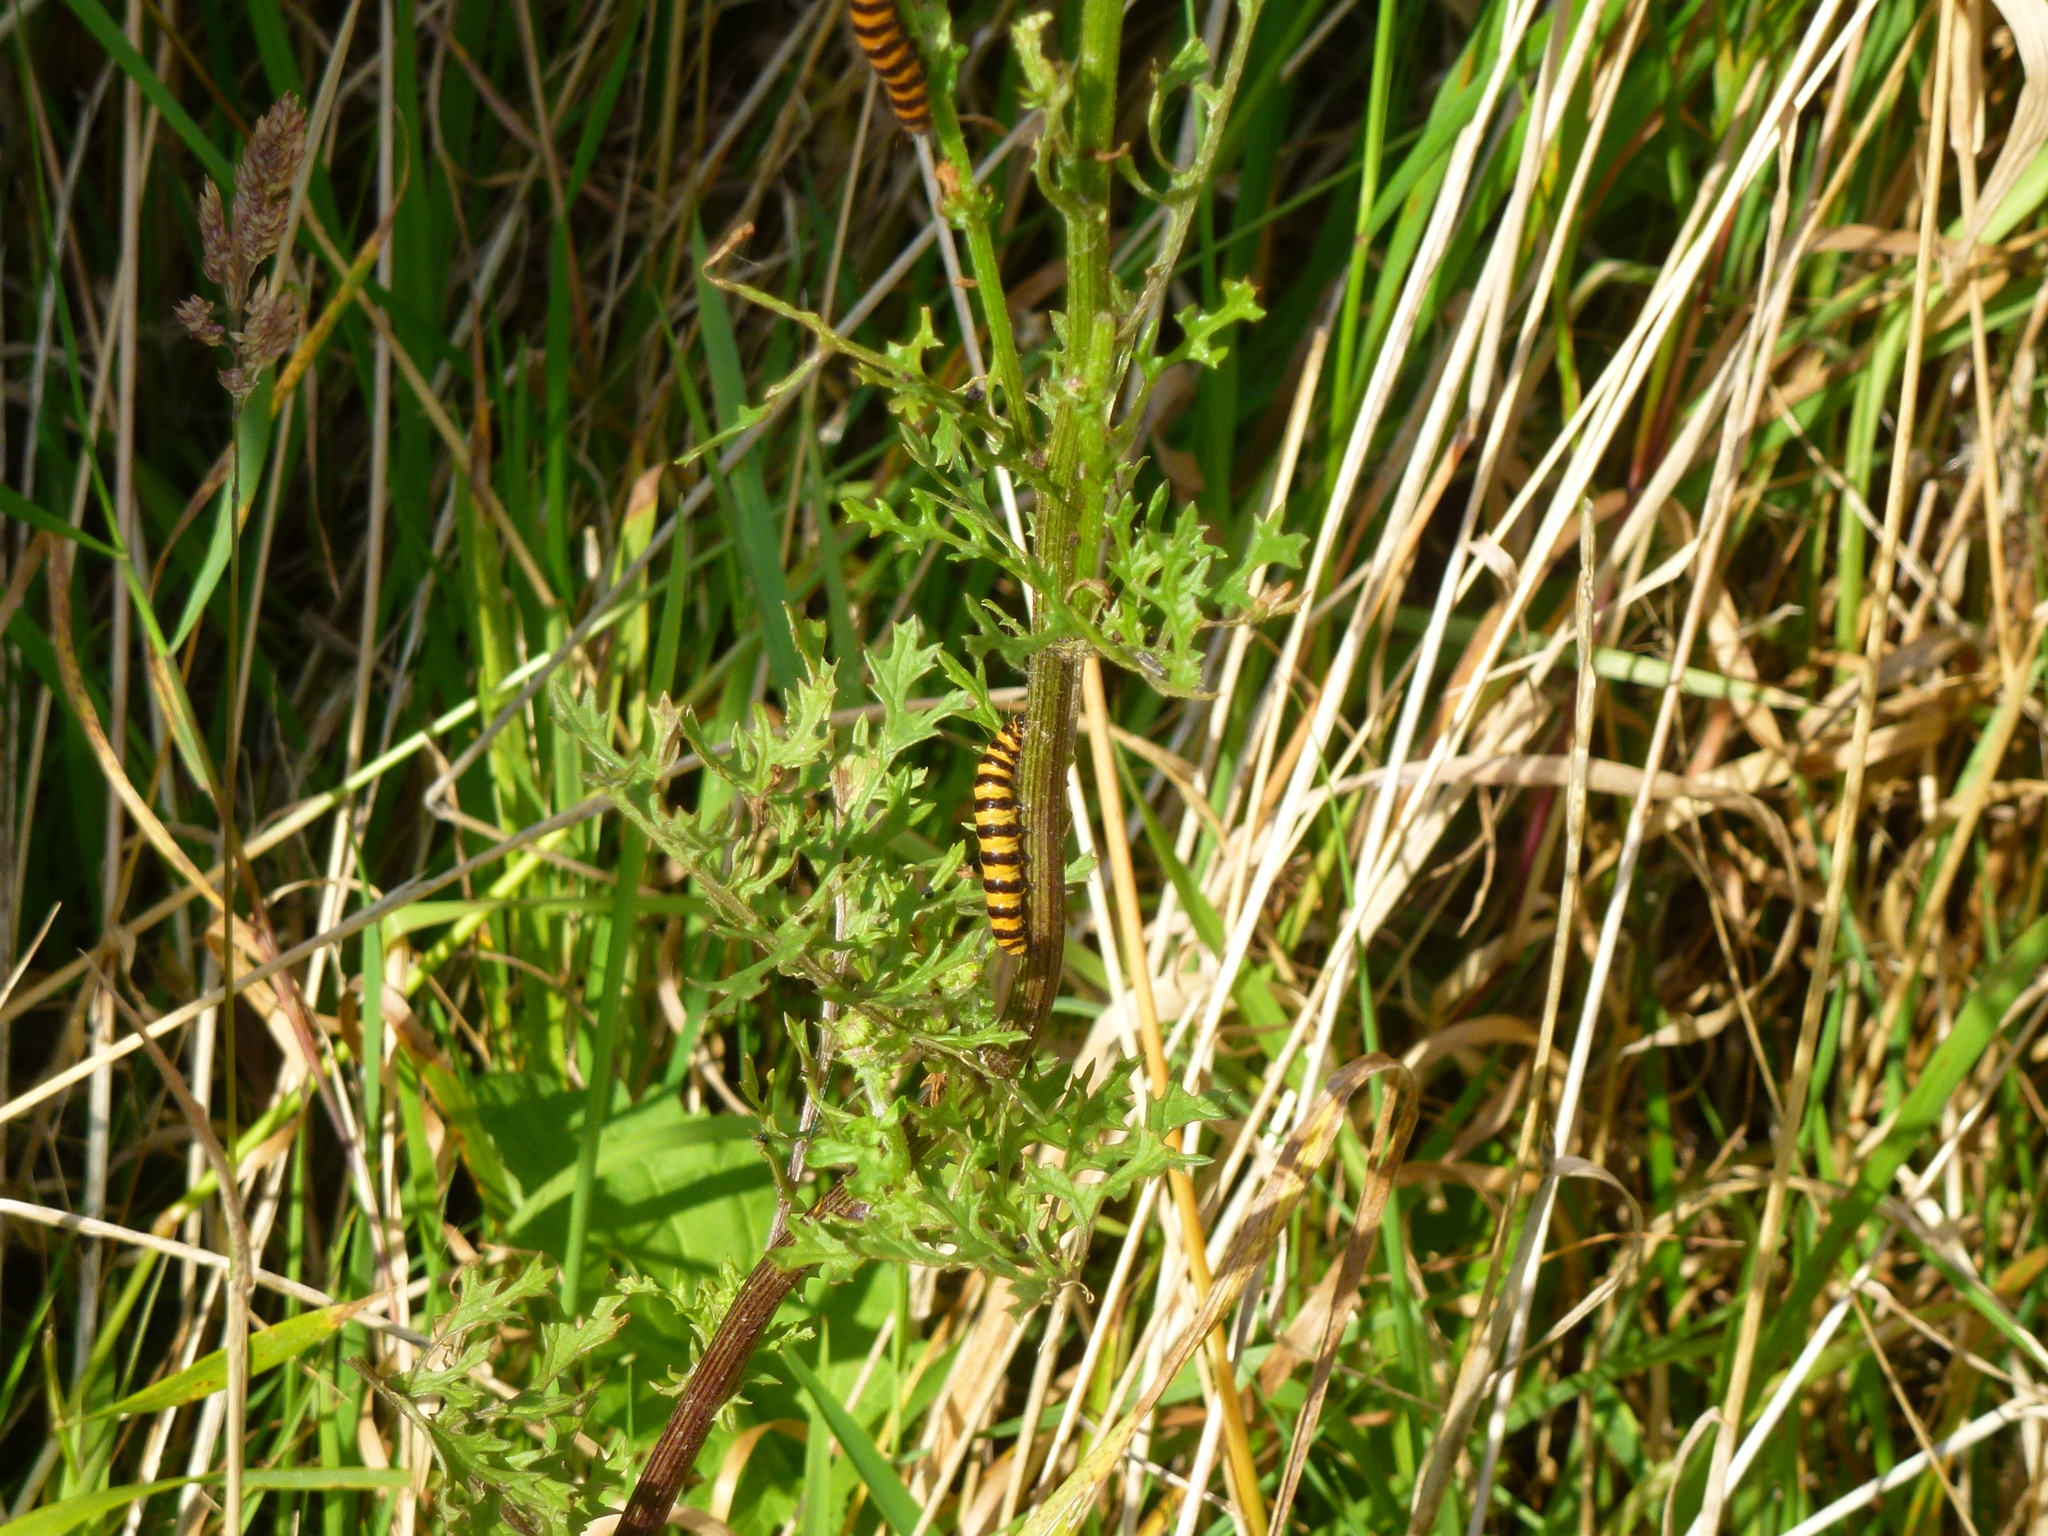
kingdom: Animalia
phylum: Arthropoda
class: Insecta
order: Lepidoptera
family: Erebidae
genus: Tyria
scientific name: Tyria jacobaeae
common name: Cinnabar
